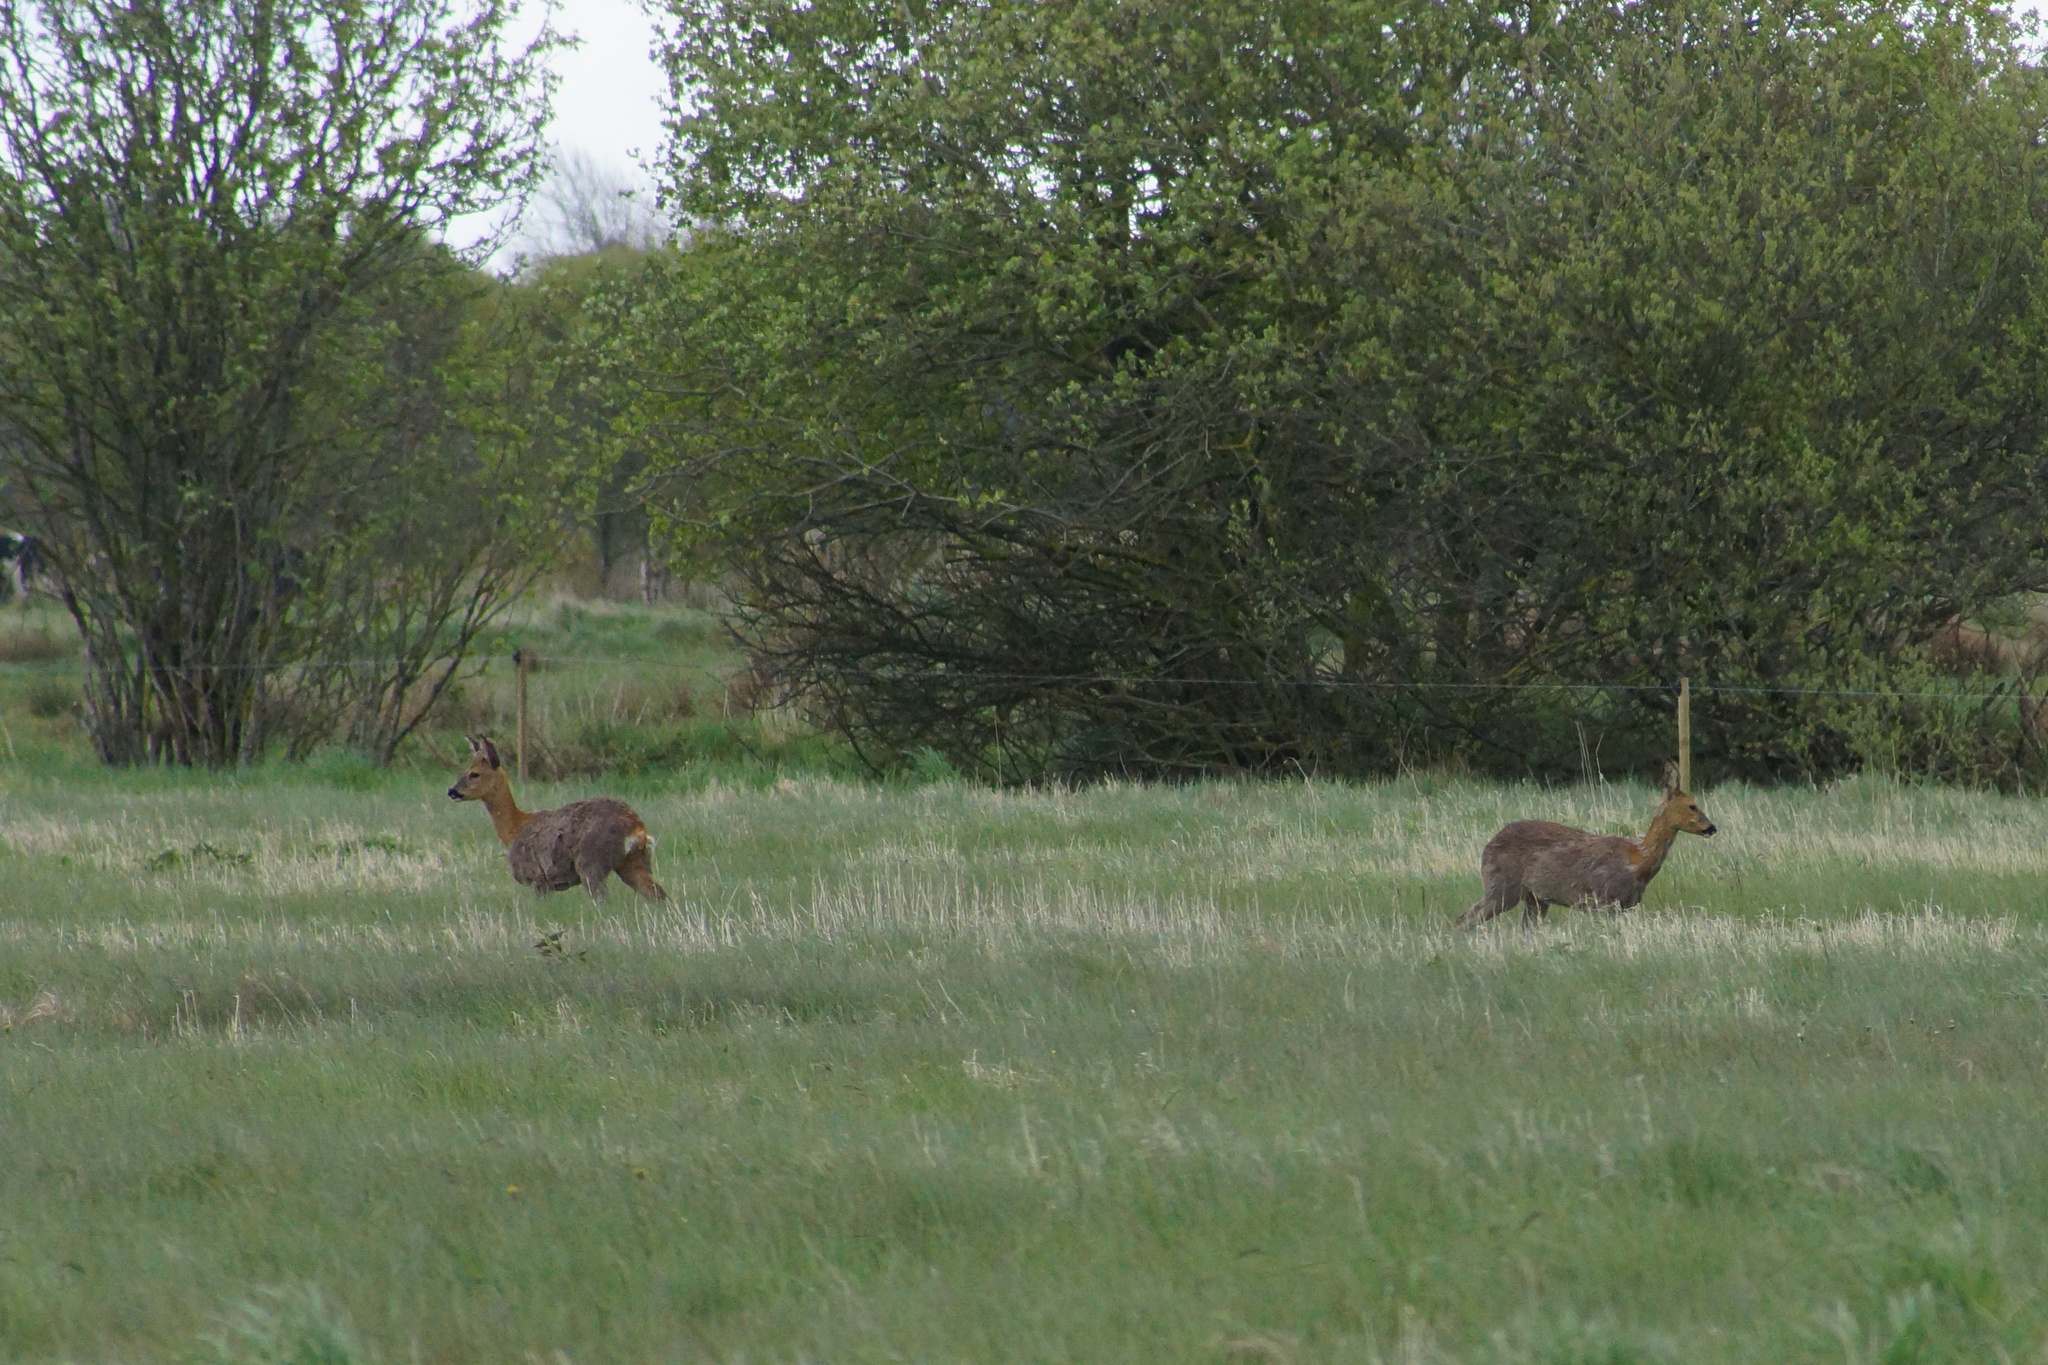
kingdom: Animalia
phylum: Chordata
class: Mammalia
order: Artiodactyla
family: Cervidae
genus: Capreolus
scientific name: Capreolus capreolus
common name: Western roe deer
